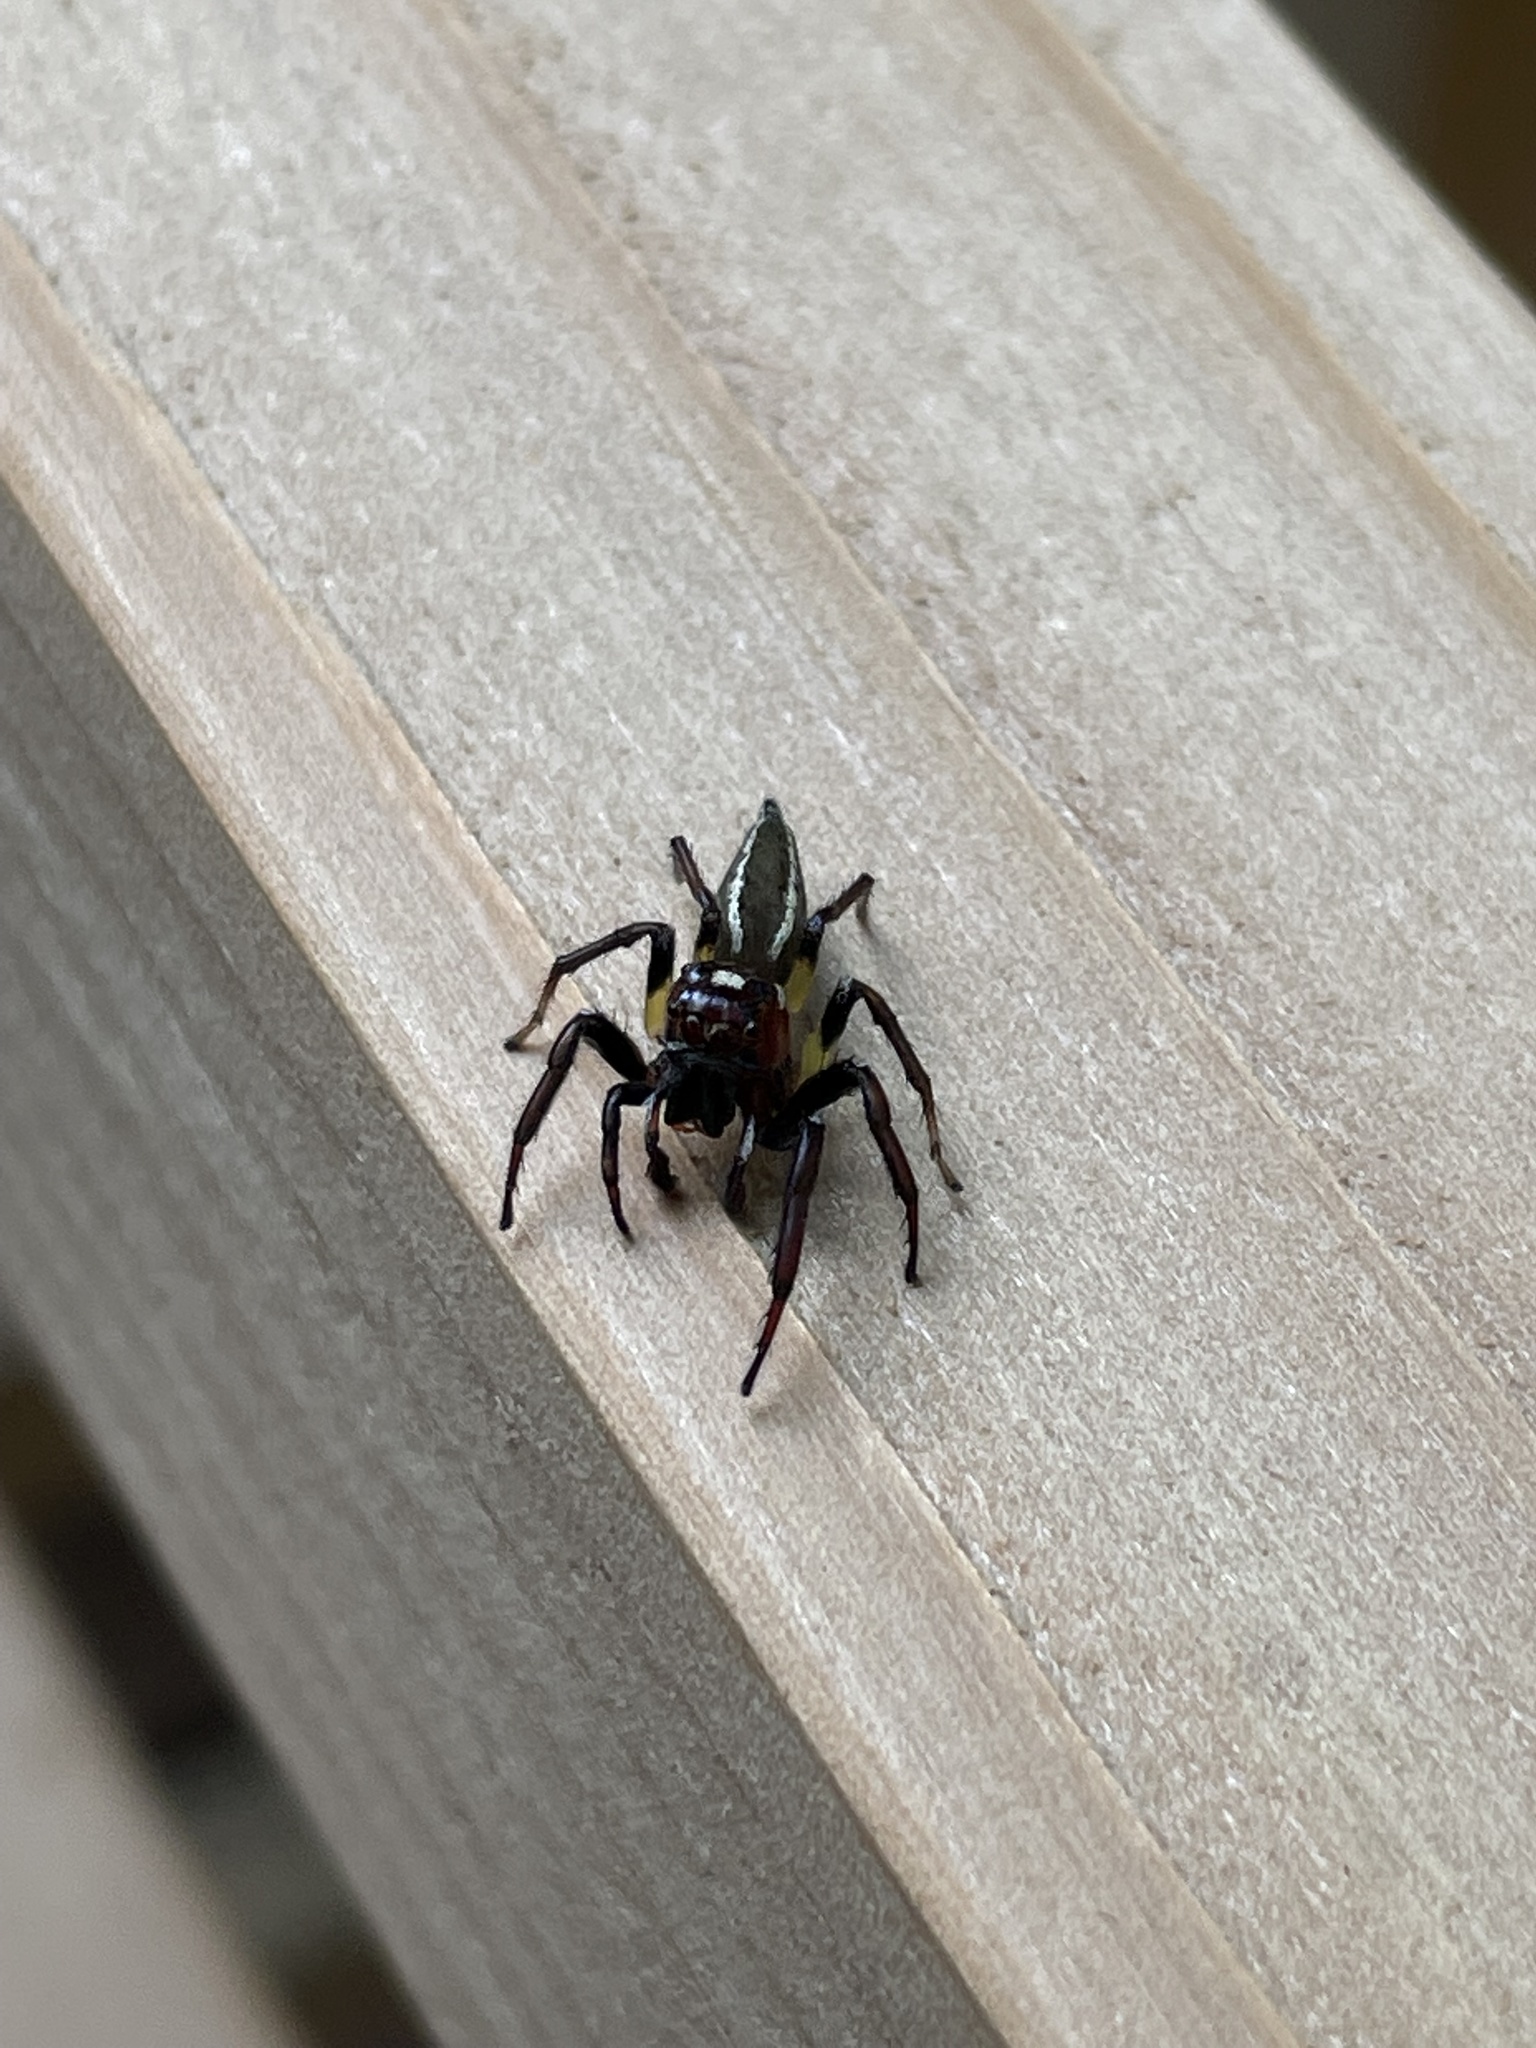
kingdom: Animalia
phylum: Arthropoda
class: Arachnida
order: Araneae
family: Salticidae
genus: Colonus
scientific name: Colonus sylvanus
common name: Jumping spiders
